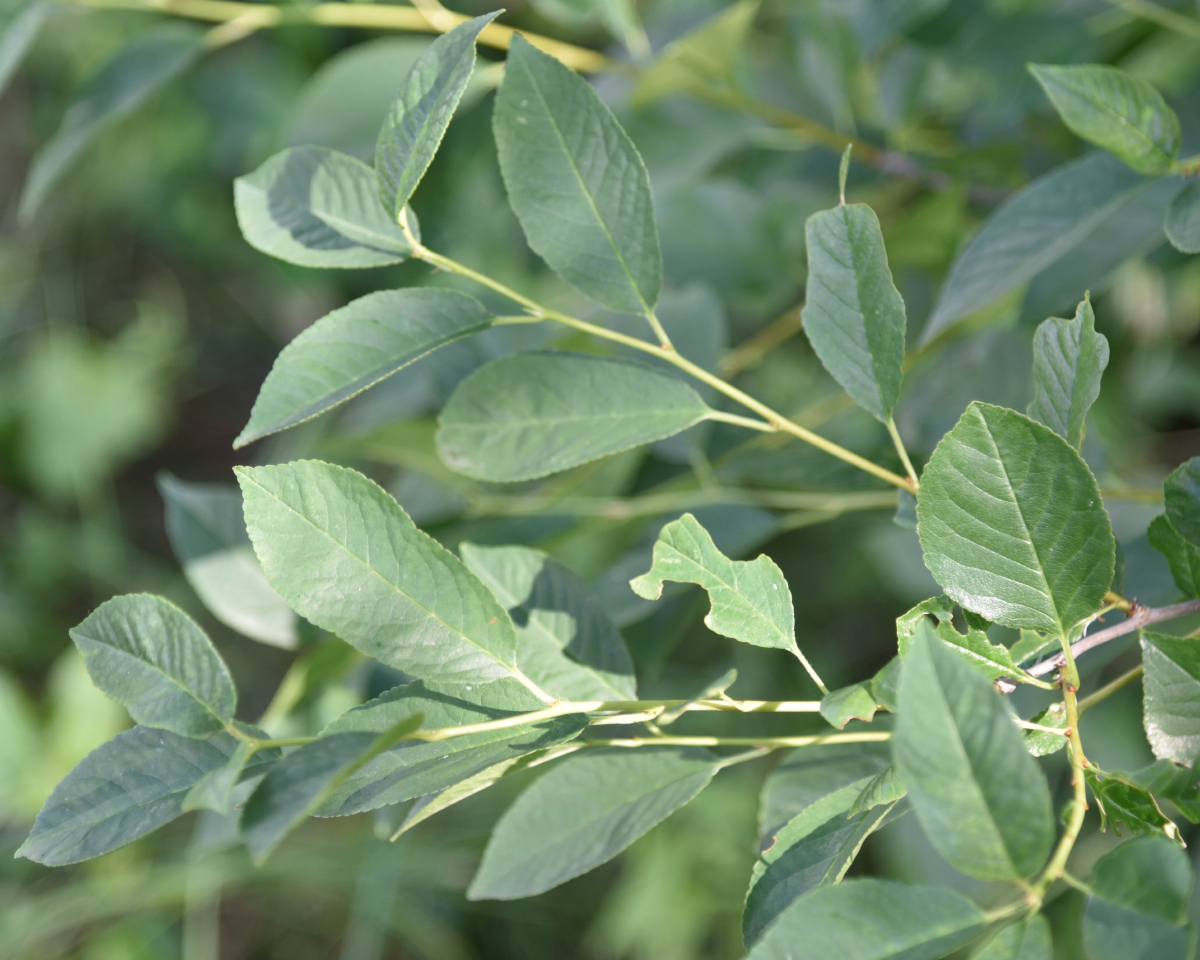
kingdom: Plantae
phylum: Tracheophyta
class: Magnoliopsida
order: Rosales
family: Rosaceae
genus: Prunus
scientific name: Prunus cerasus
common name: Morello cherry
